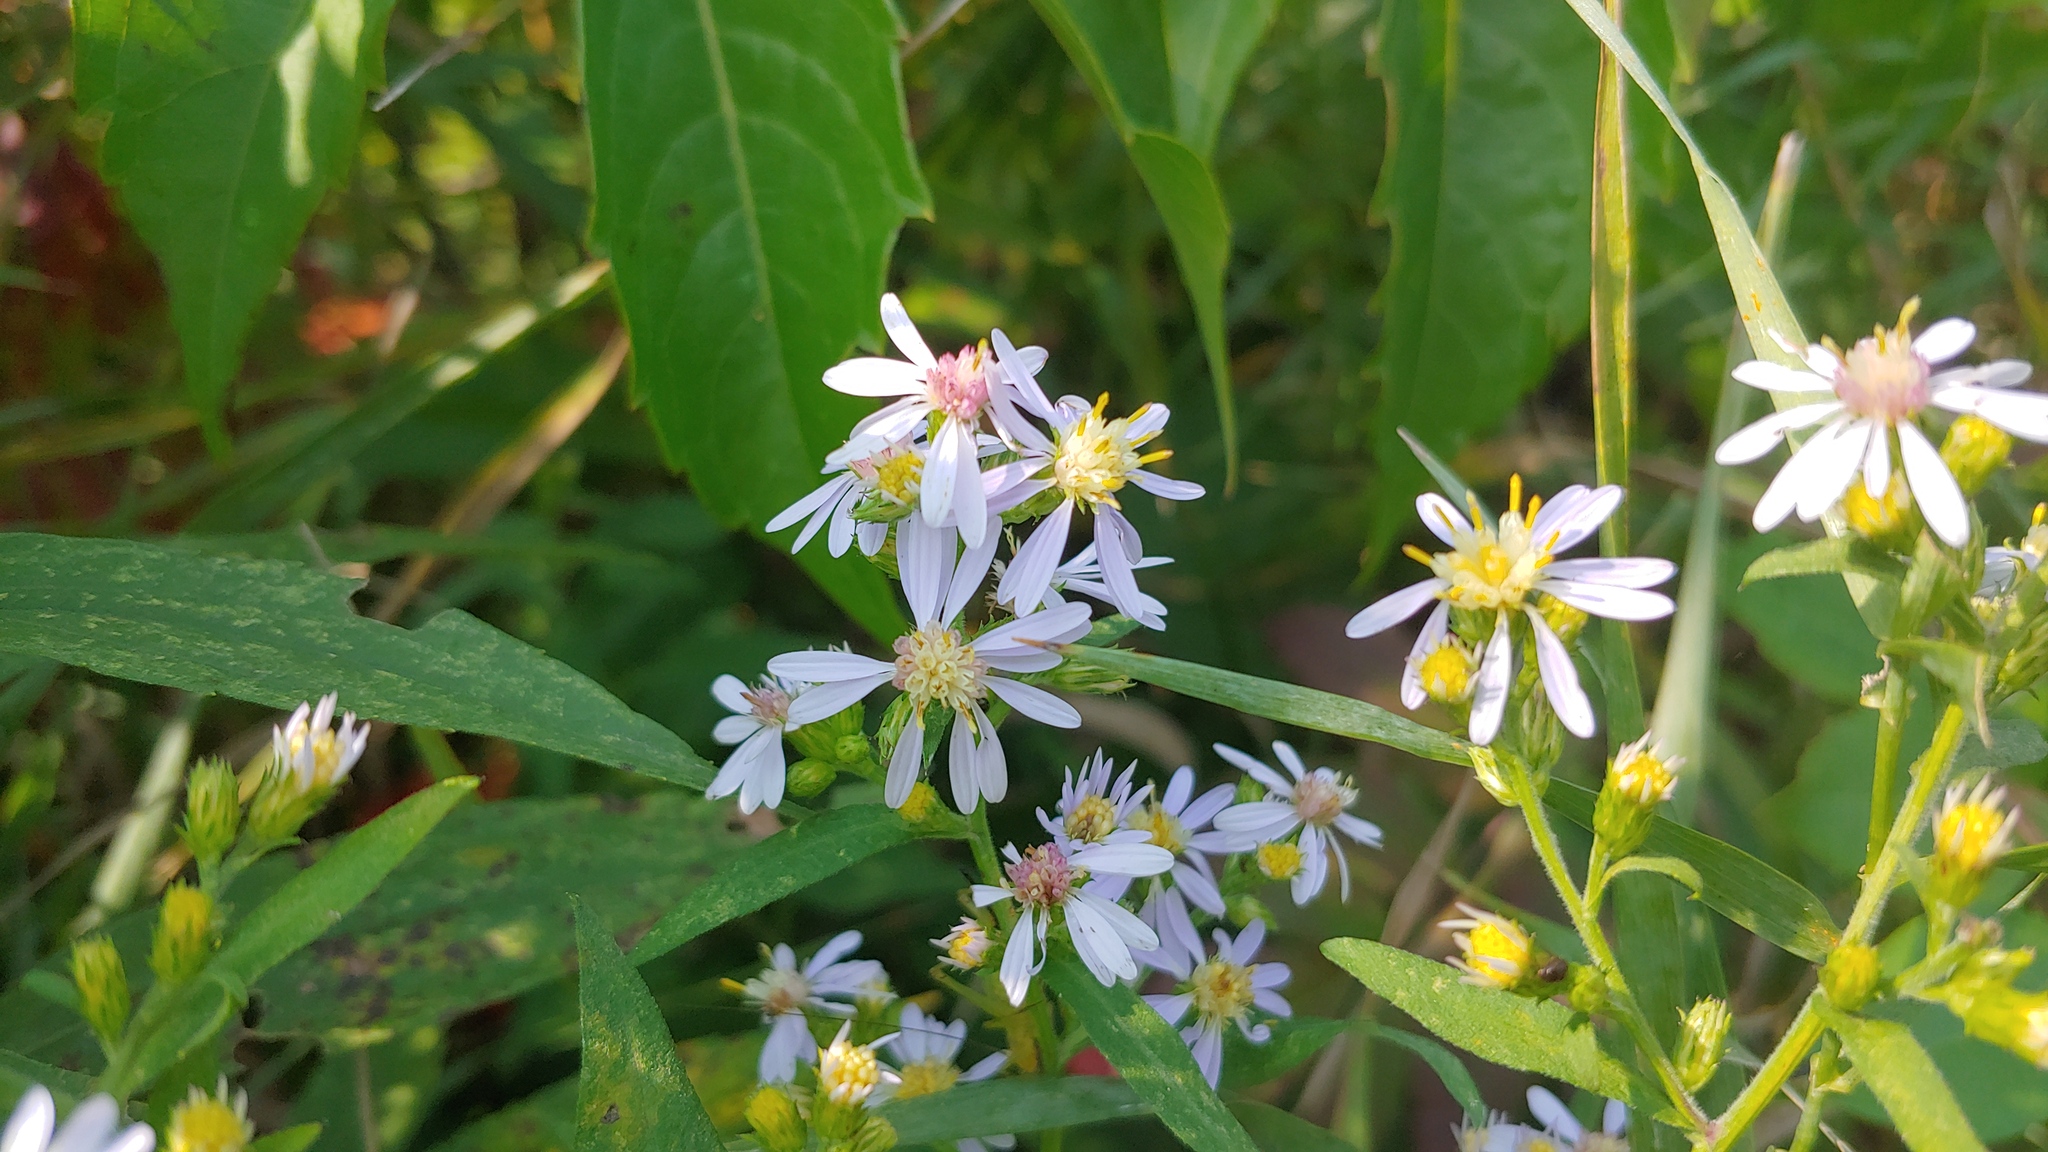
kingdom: Plantae
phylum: Tracheophyta
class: Magnoliopsida
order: Asterales
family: Asteraceae
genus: Symphyotrichum
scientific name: Symphyotrichum drummondii
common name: Drummond's aster
